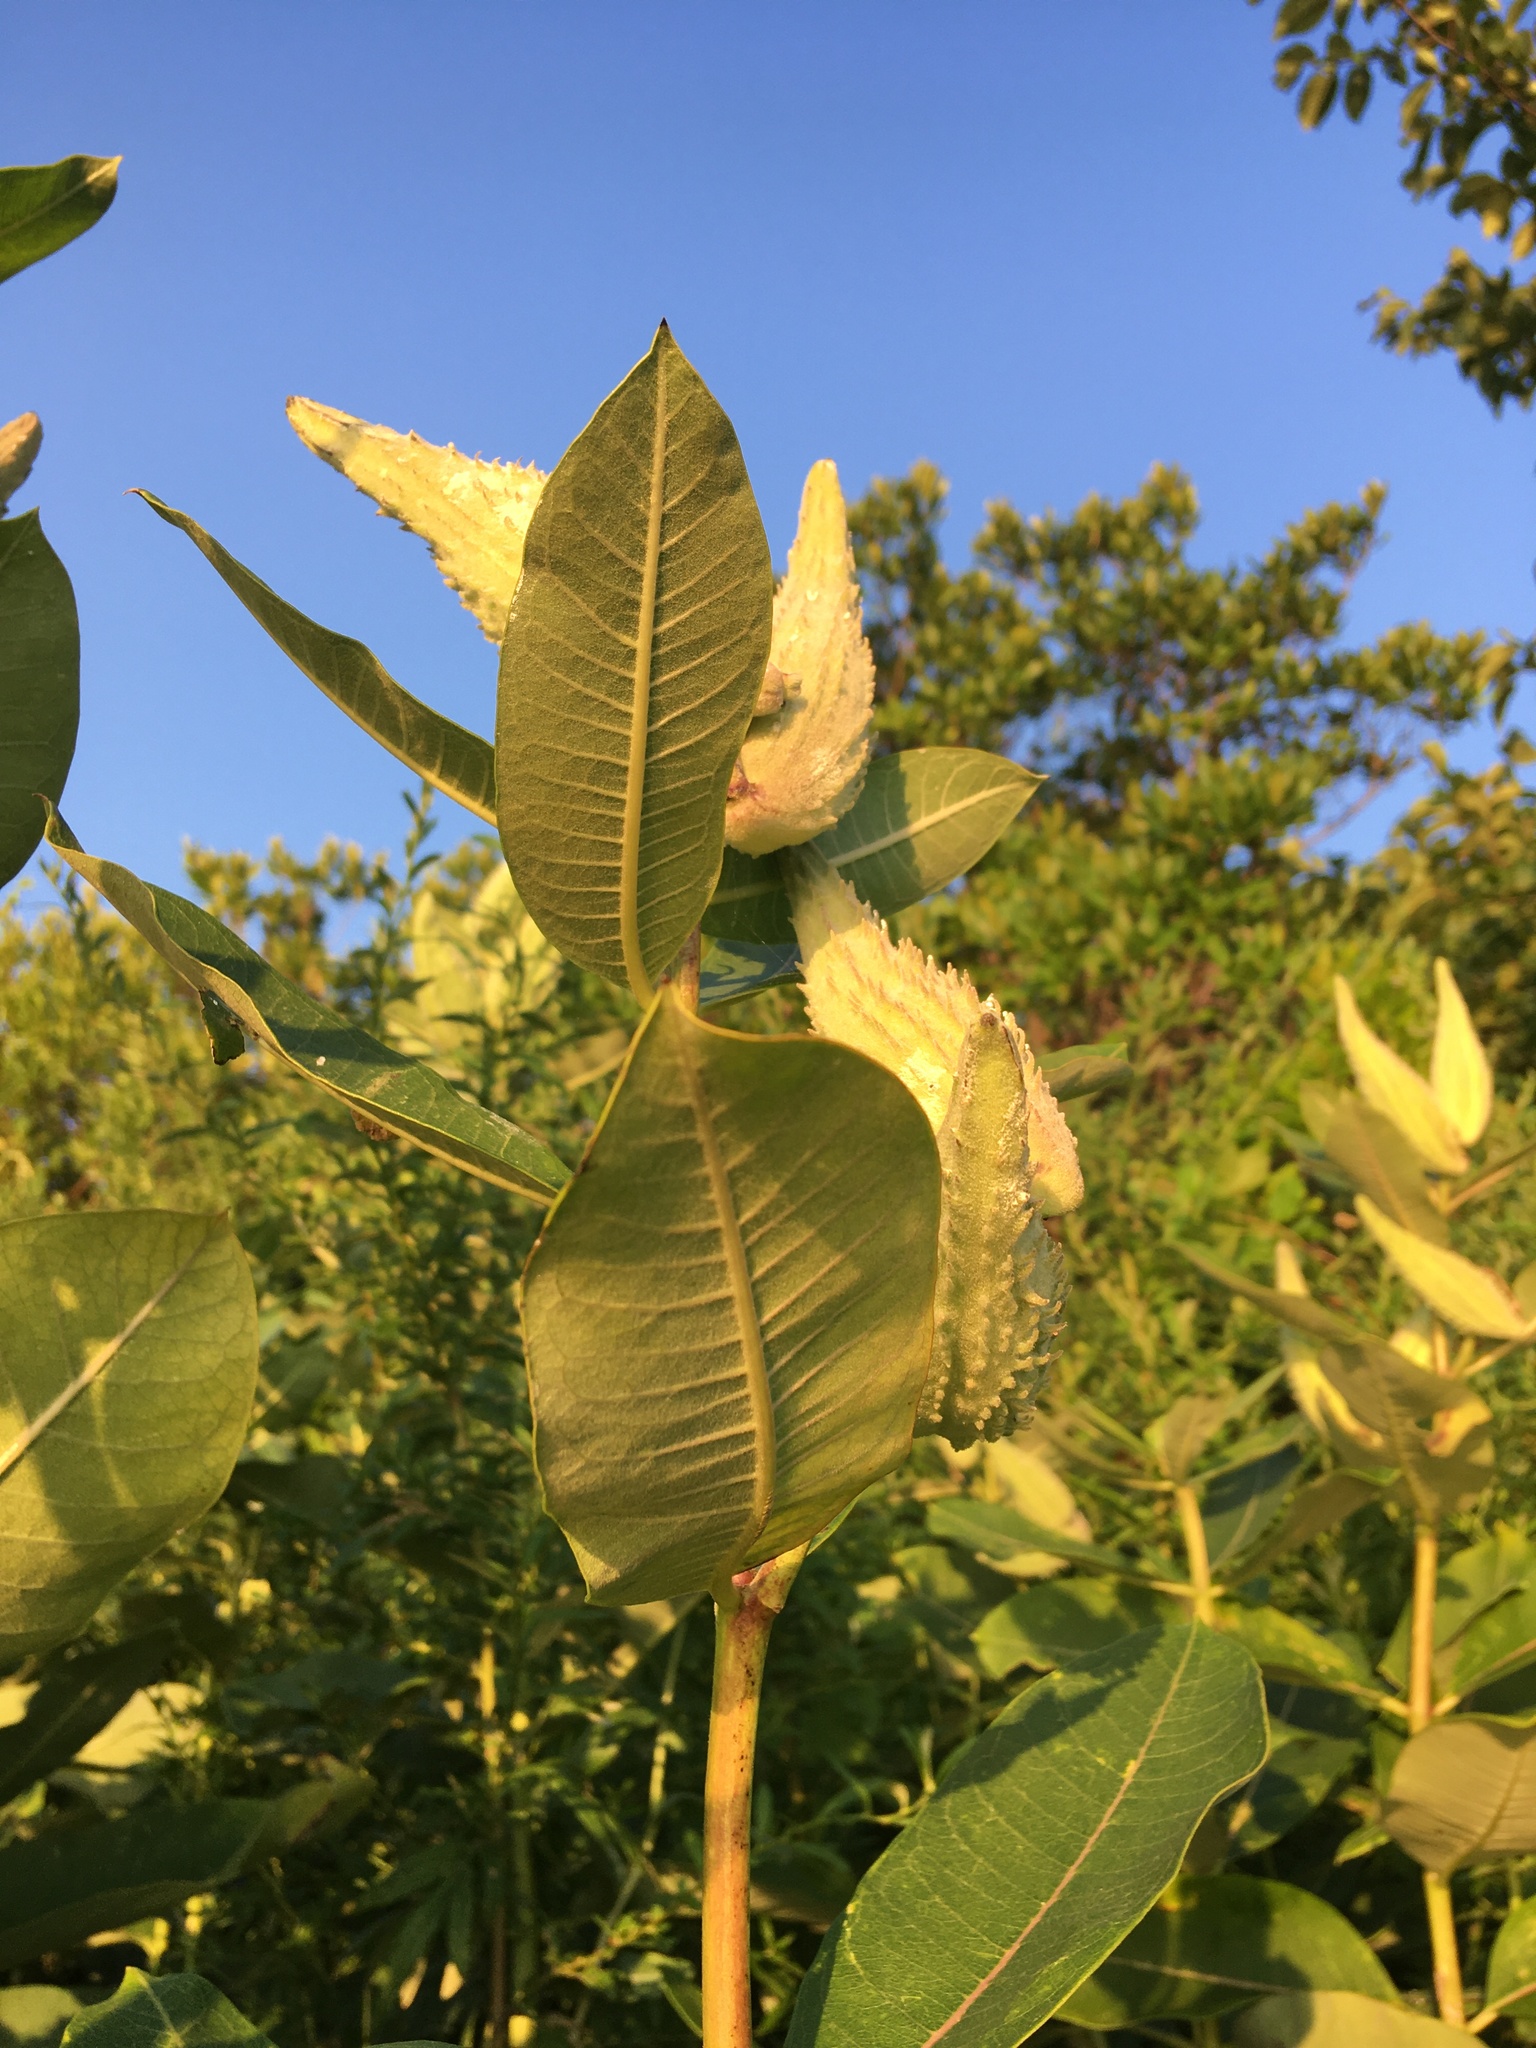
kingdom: Plantae
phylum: Tracheophyta
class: Magnoliopsida
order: Gentianales
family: Apocynaceae
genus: Asclepias
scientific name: Asclepias syriaca
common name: Common milkweed
